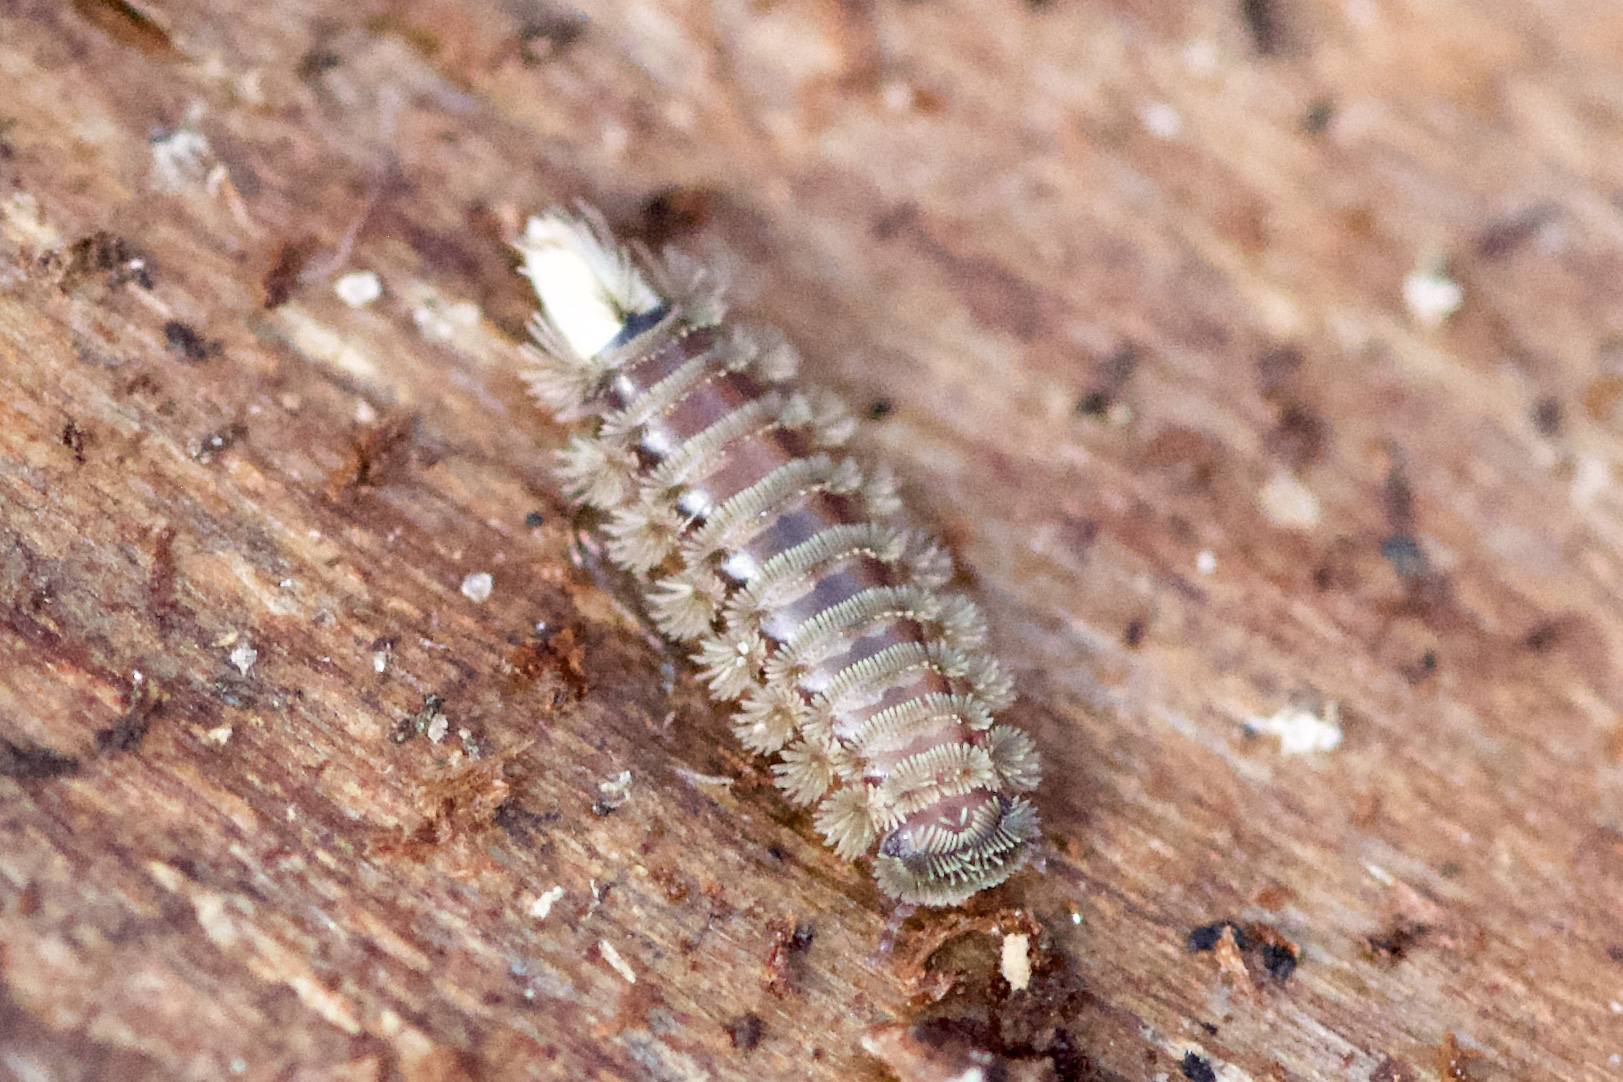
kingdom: Animalia
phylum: Arthropoda
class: Diplopoda
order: Polyxenida
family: Polyxenidae
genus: Polyxenus
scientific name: Polyxenus lagurus
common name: Bristly millipede
